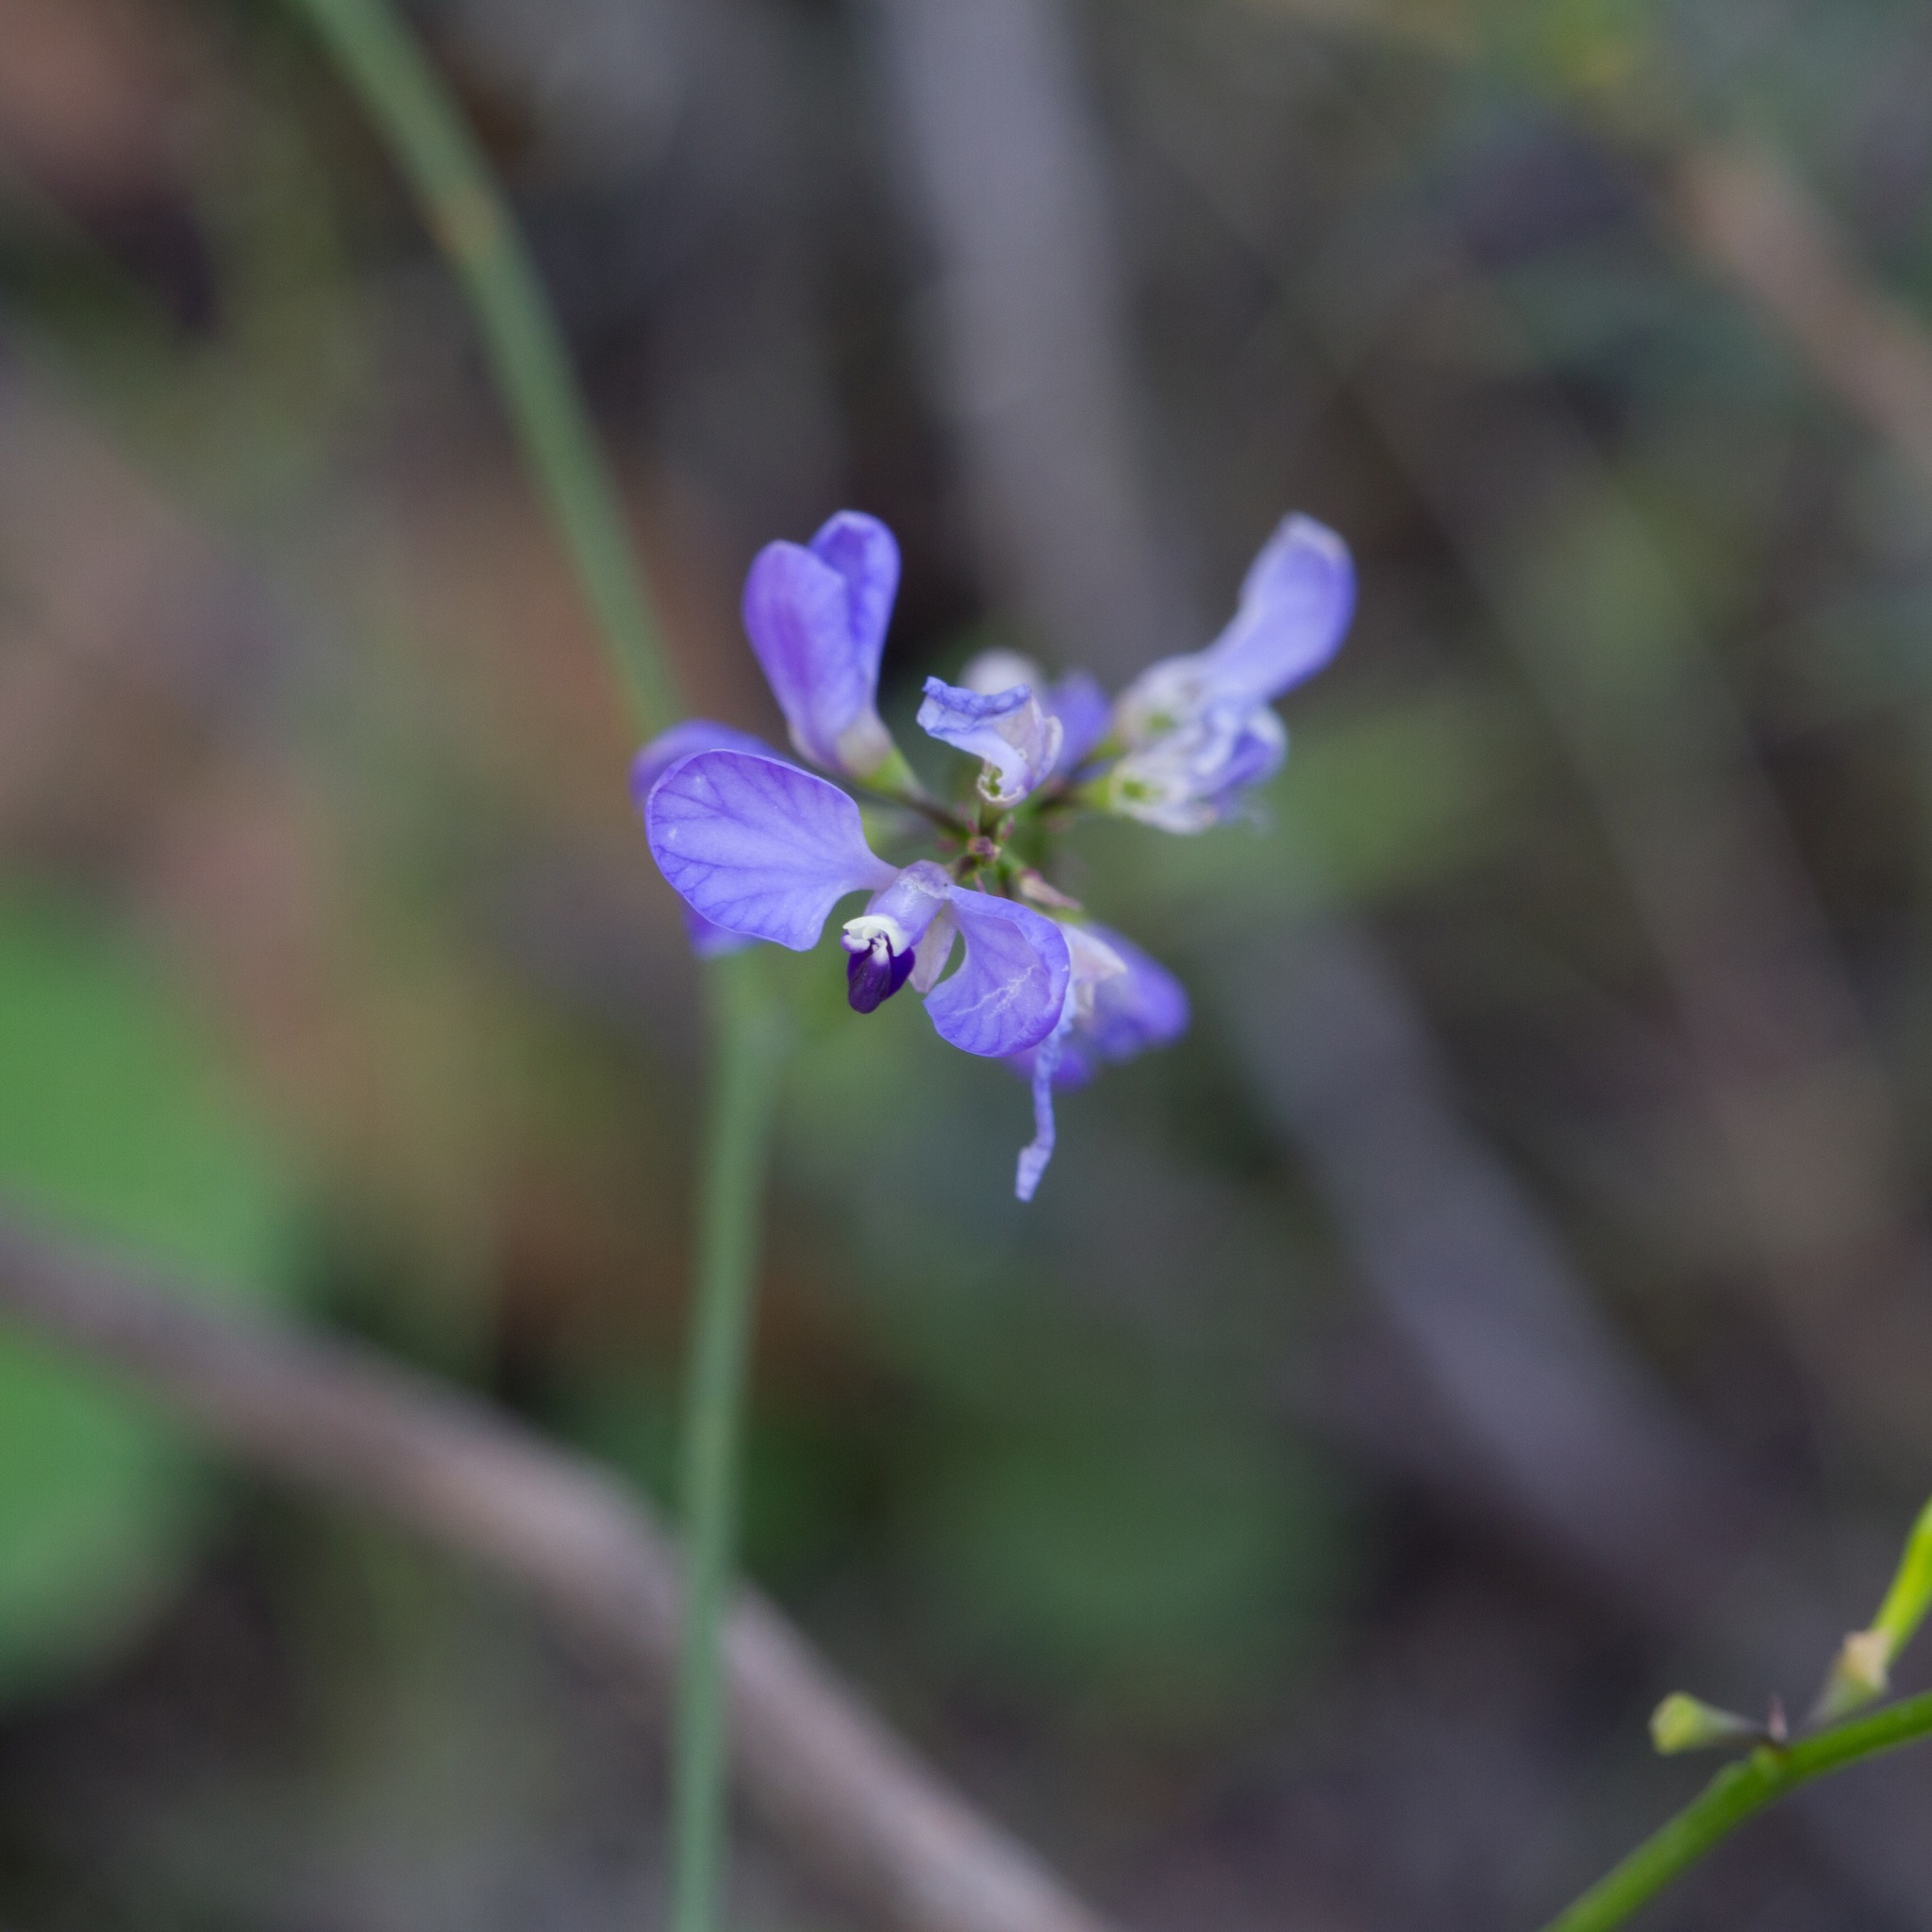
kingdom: Plantae
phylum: Tracheophyta
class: Magnoliopsida
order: Fabales
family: Polygalaceae
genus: Comesperma
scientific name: Comesperma volubile
